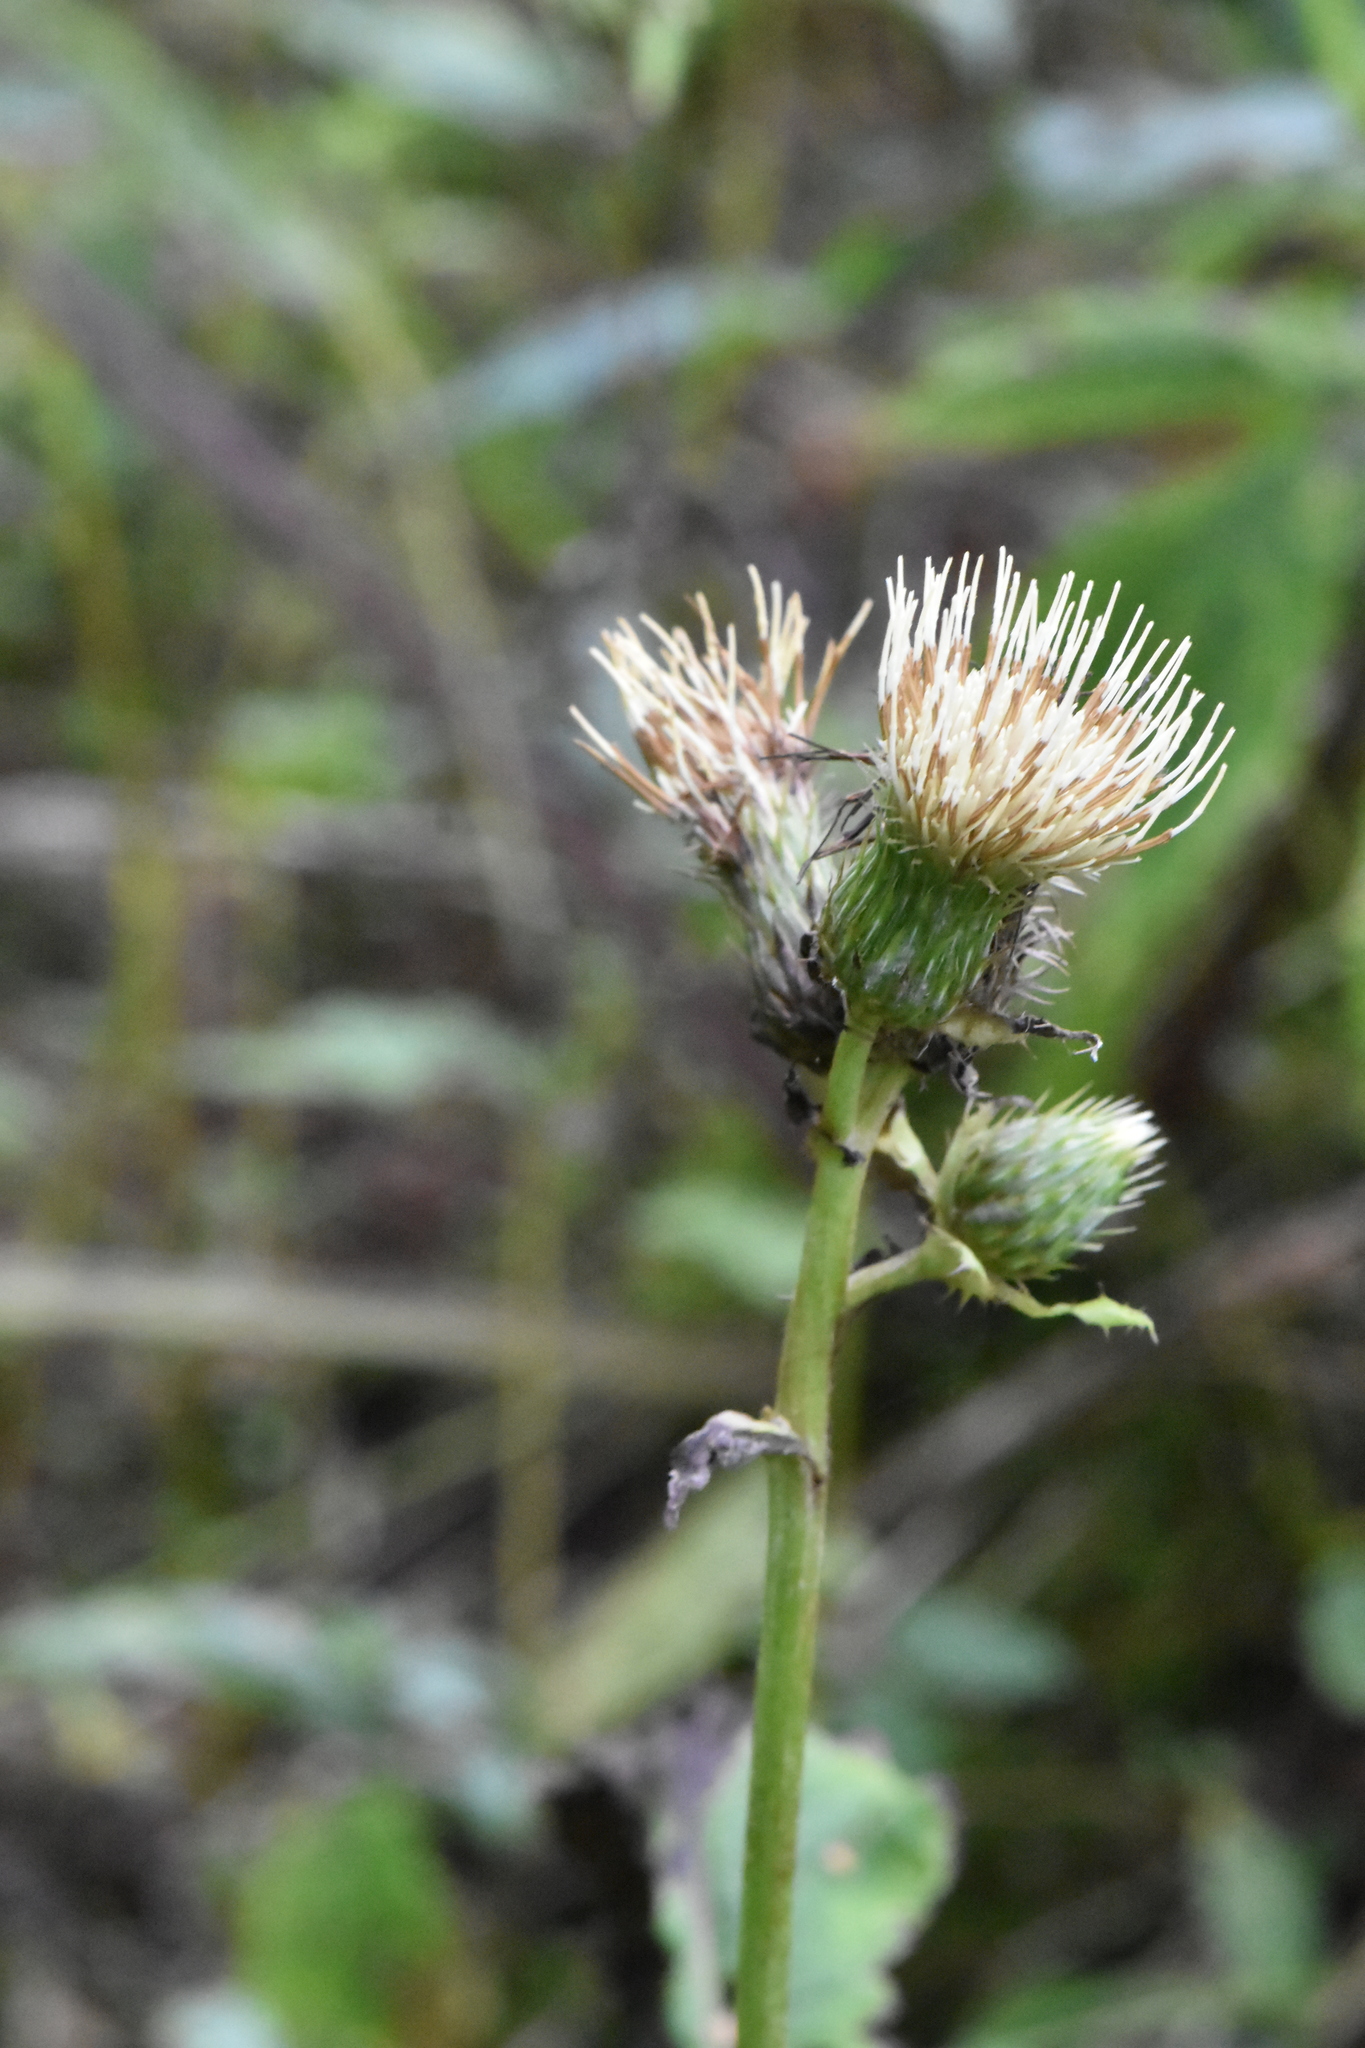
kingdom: Plantae
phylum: Tracheophyta
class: Magnoliopsida
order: Asterales
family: Asteraceae
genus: Cirsium
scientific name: Cirsium oleraceum
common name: Cabbage thistle
